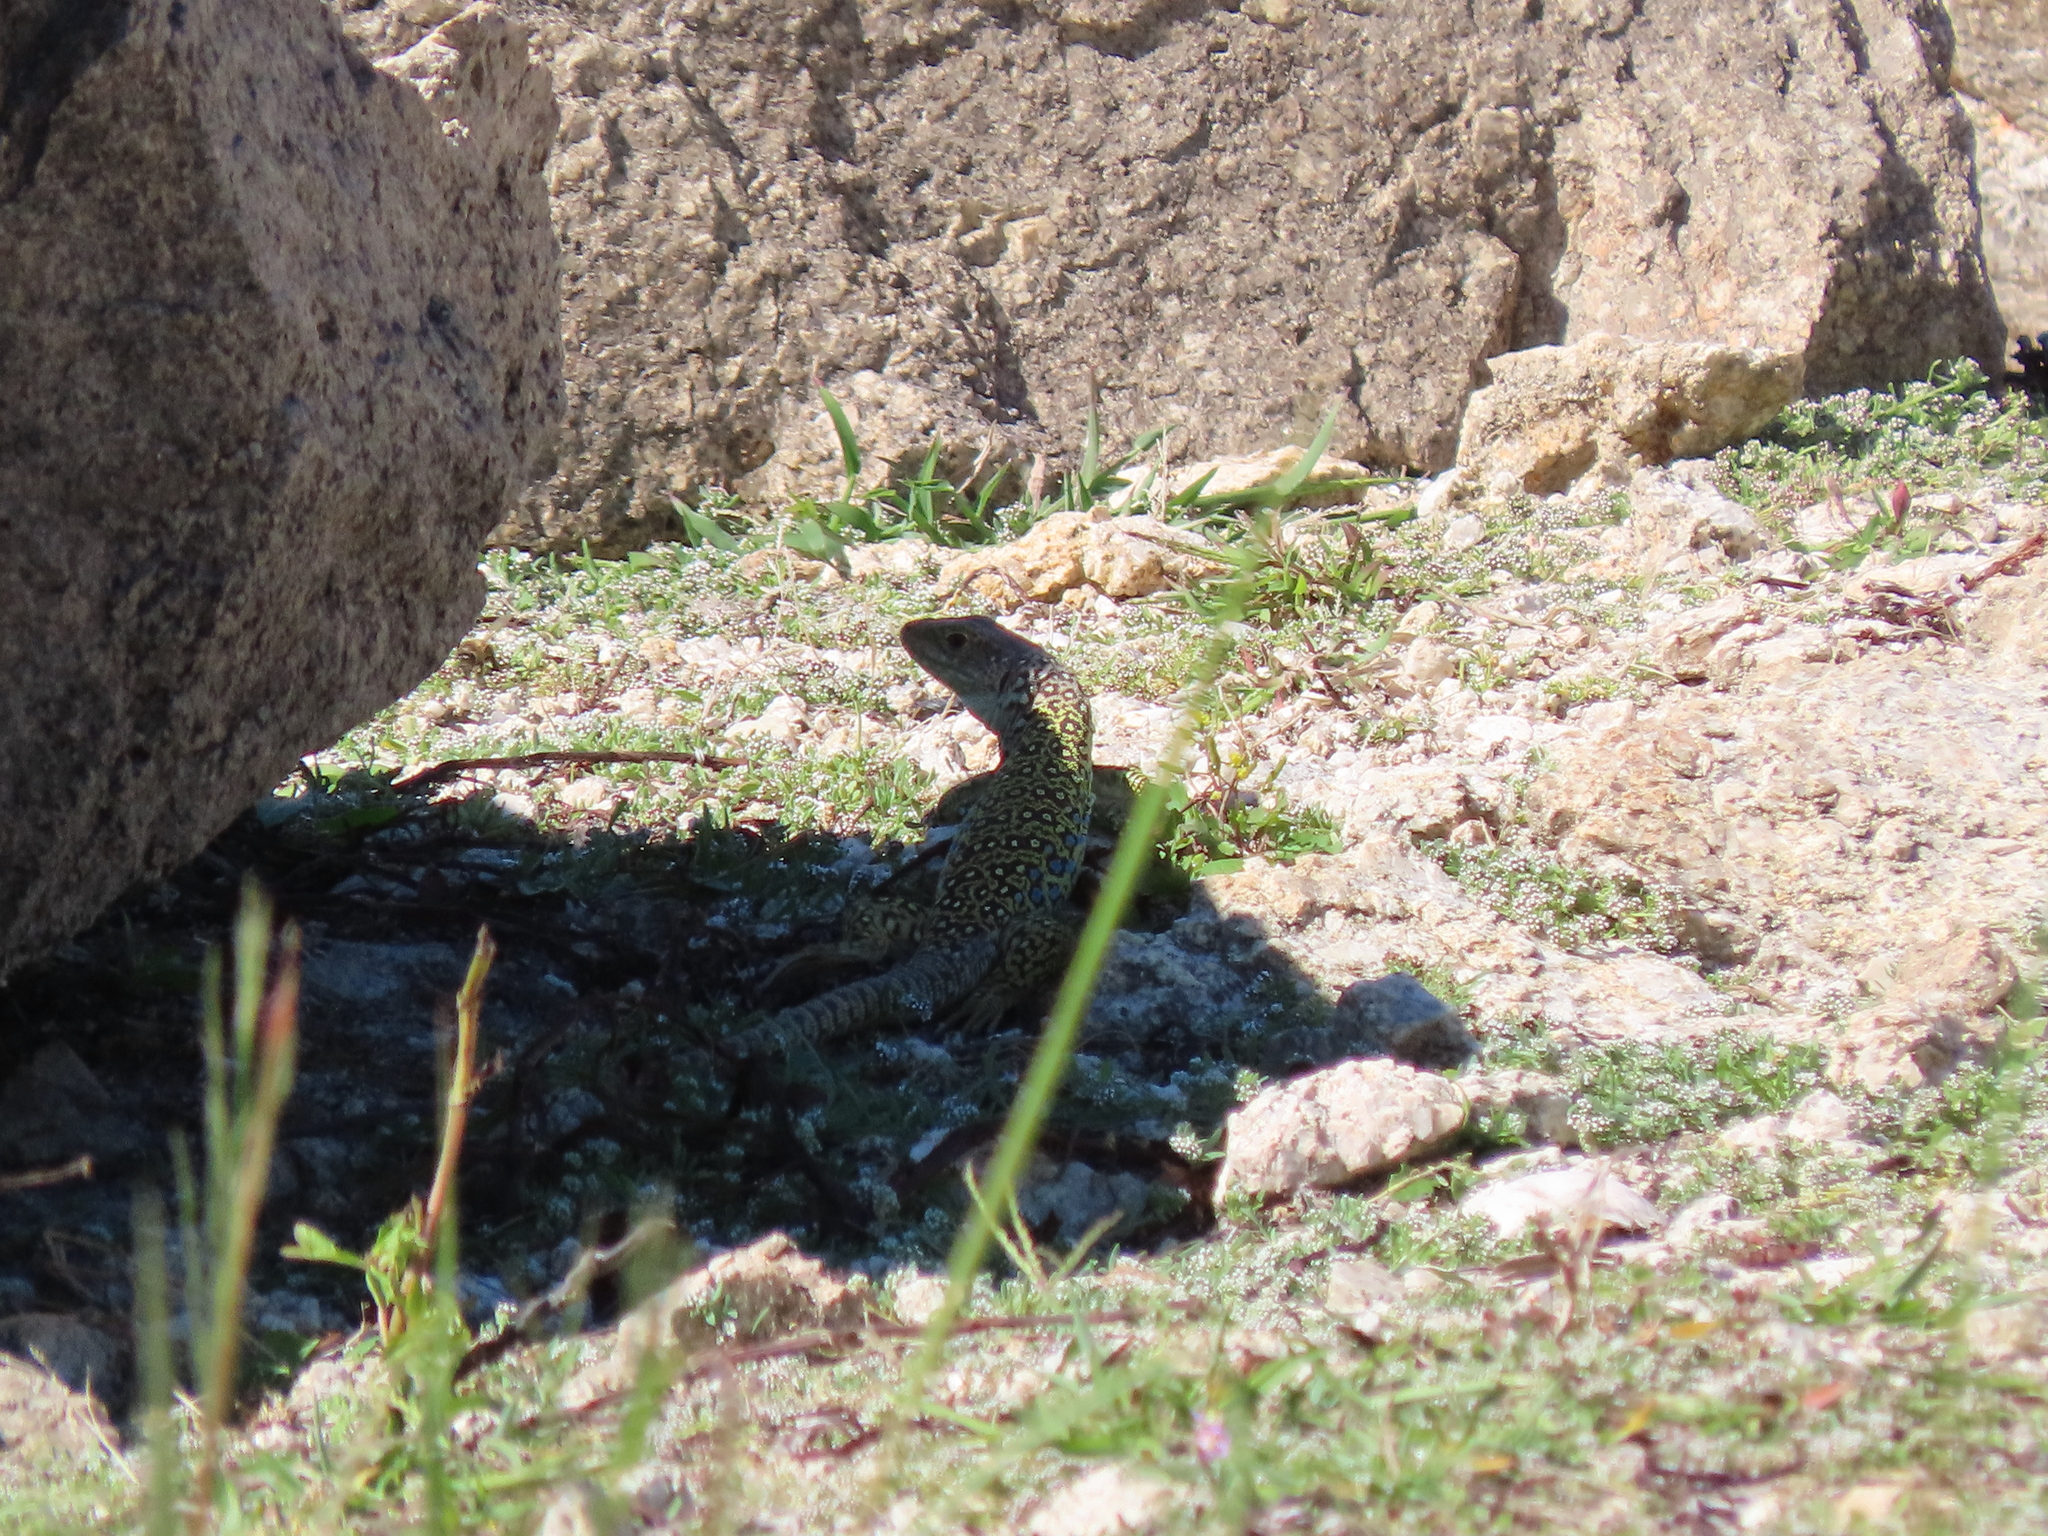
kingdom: Animalia
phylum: Chordata
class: Squamata
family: Lacertidae
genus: Timon
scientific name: Timon lepidus
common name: Ocellated lizard
